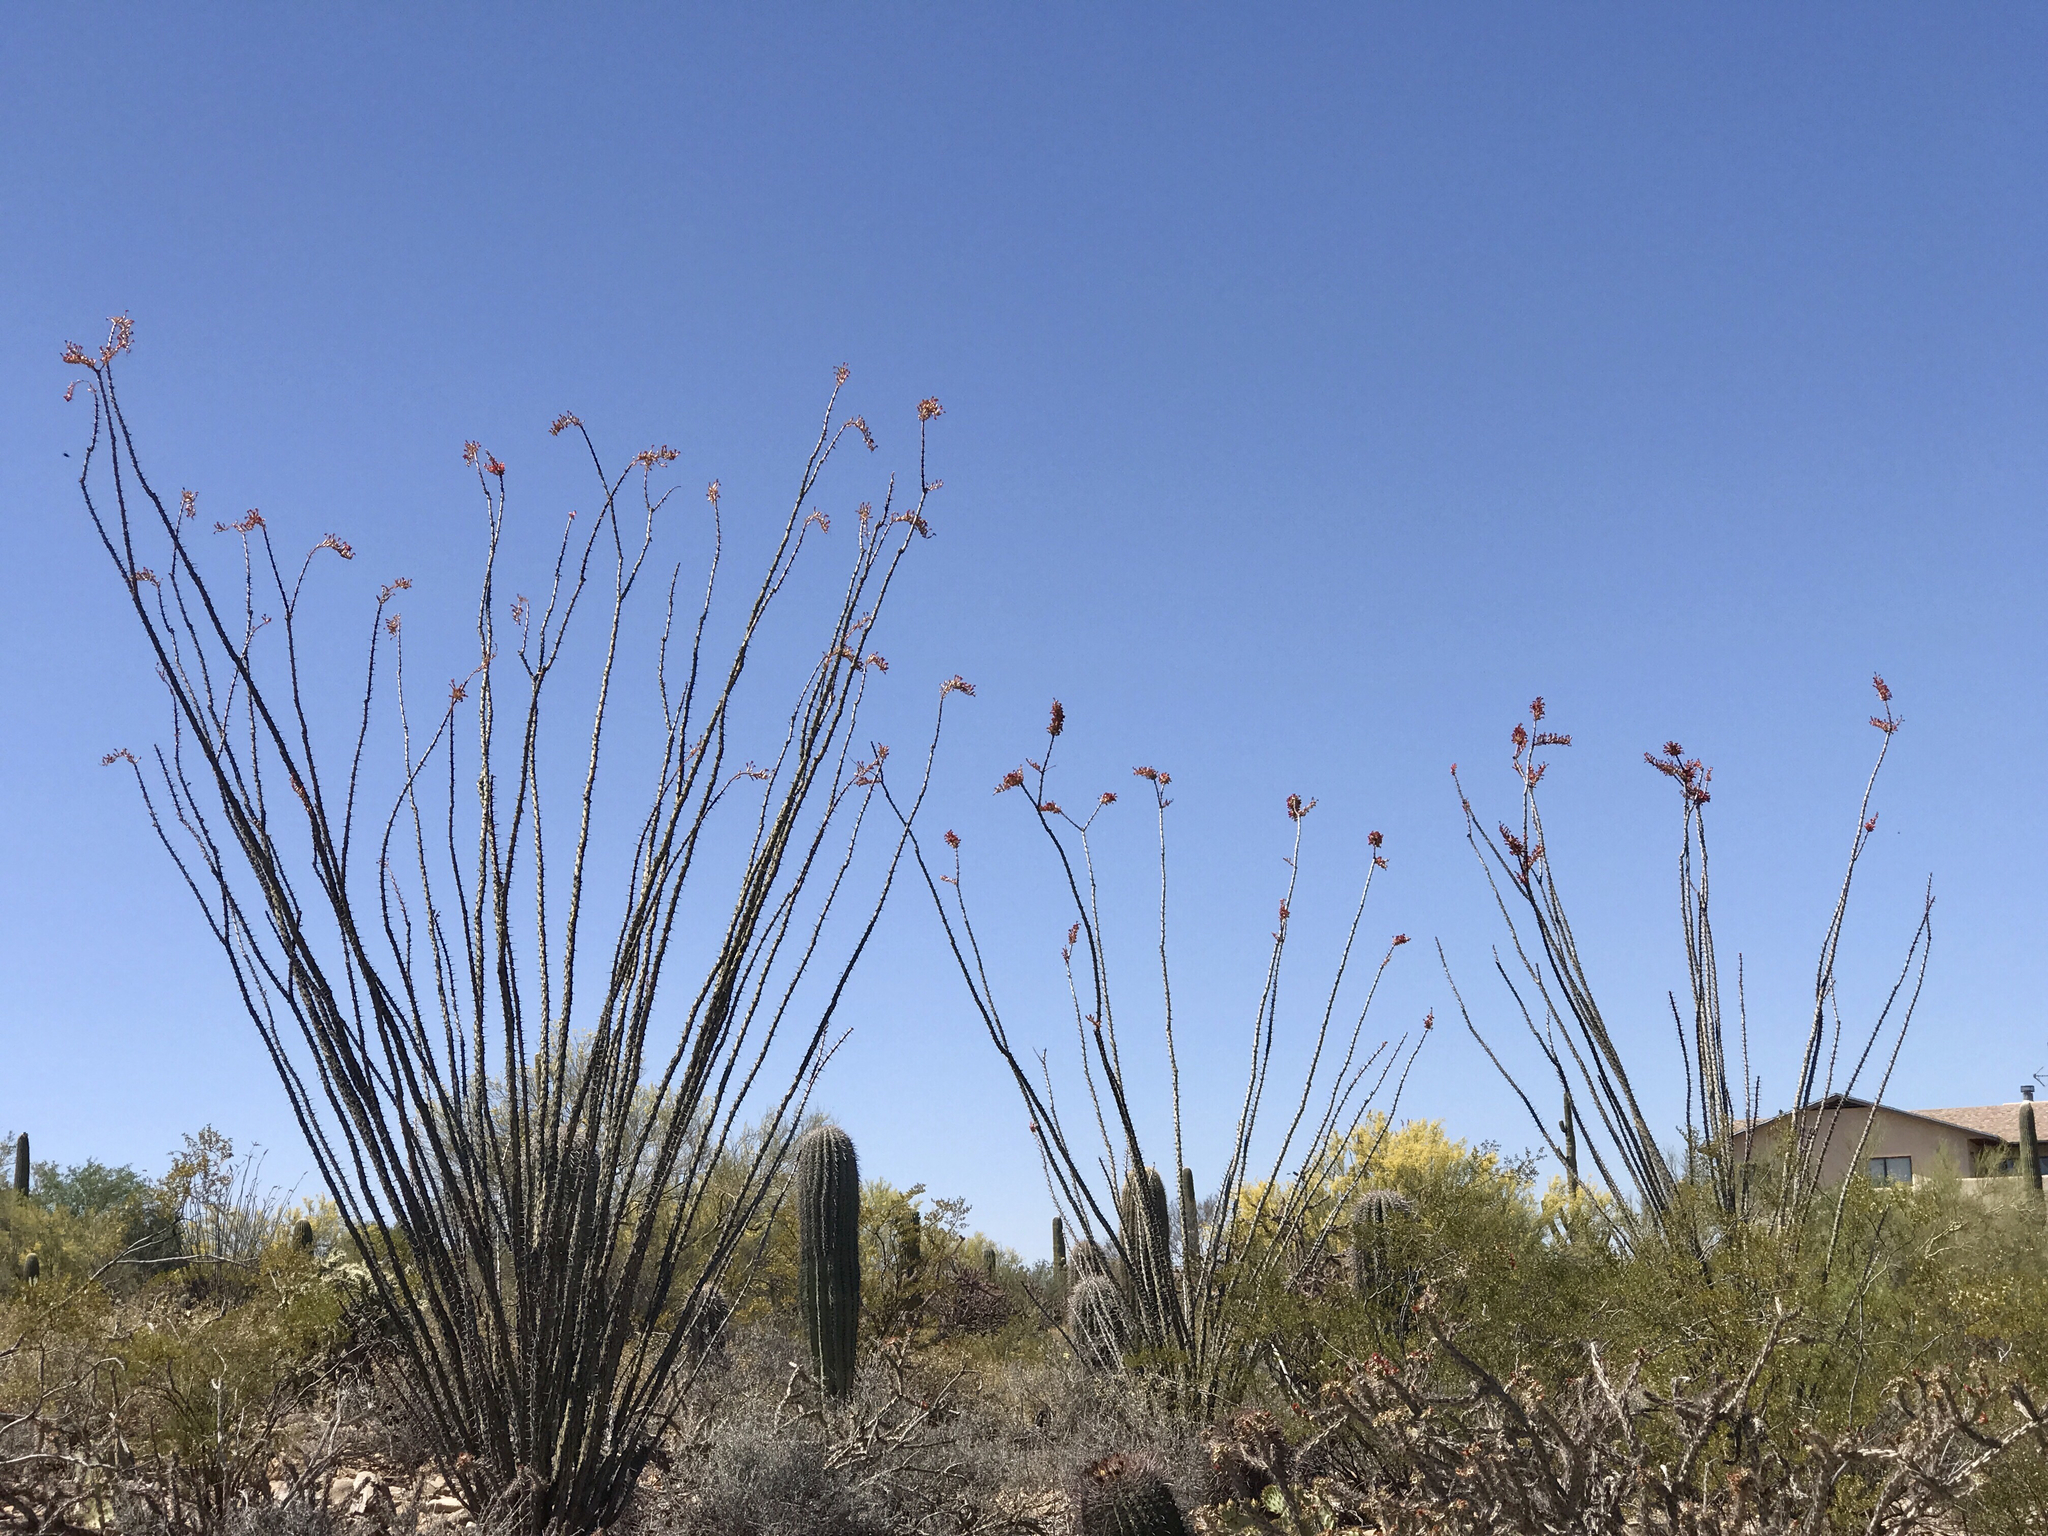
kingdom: Plantae
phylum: Tracheophyta
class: Magnoliopsida
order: Ericales
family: Fouquieriaceae
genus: Fouquieria
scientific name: Fouquieria splendens
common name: Vine-cactus
